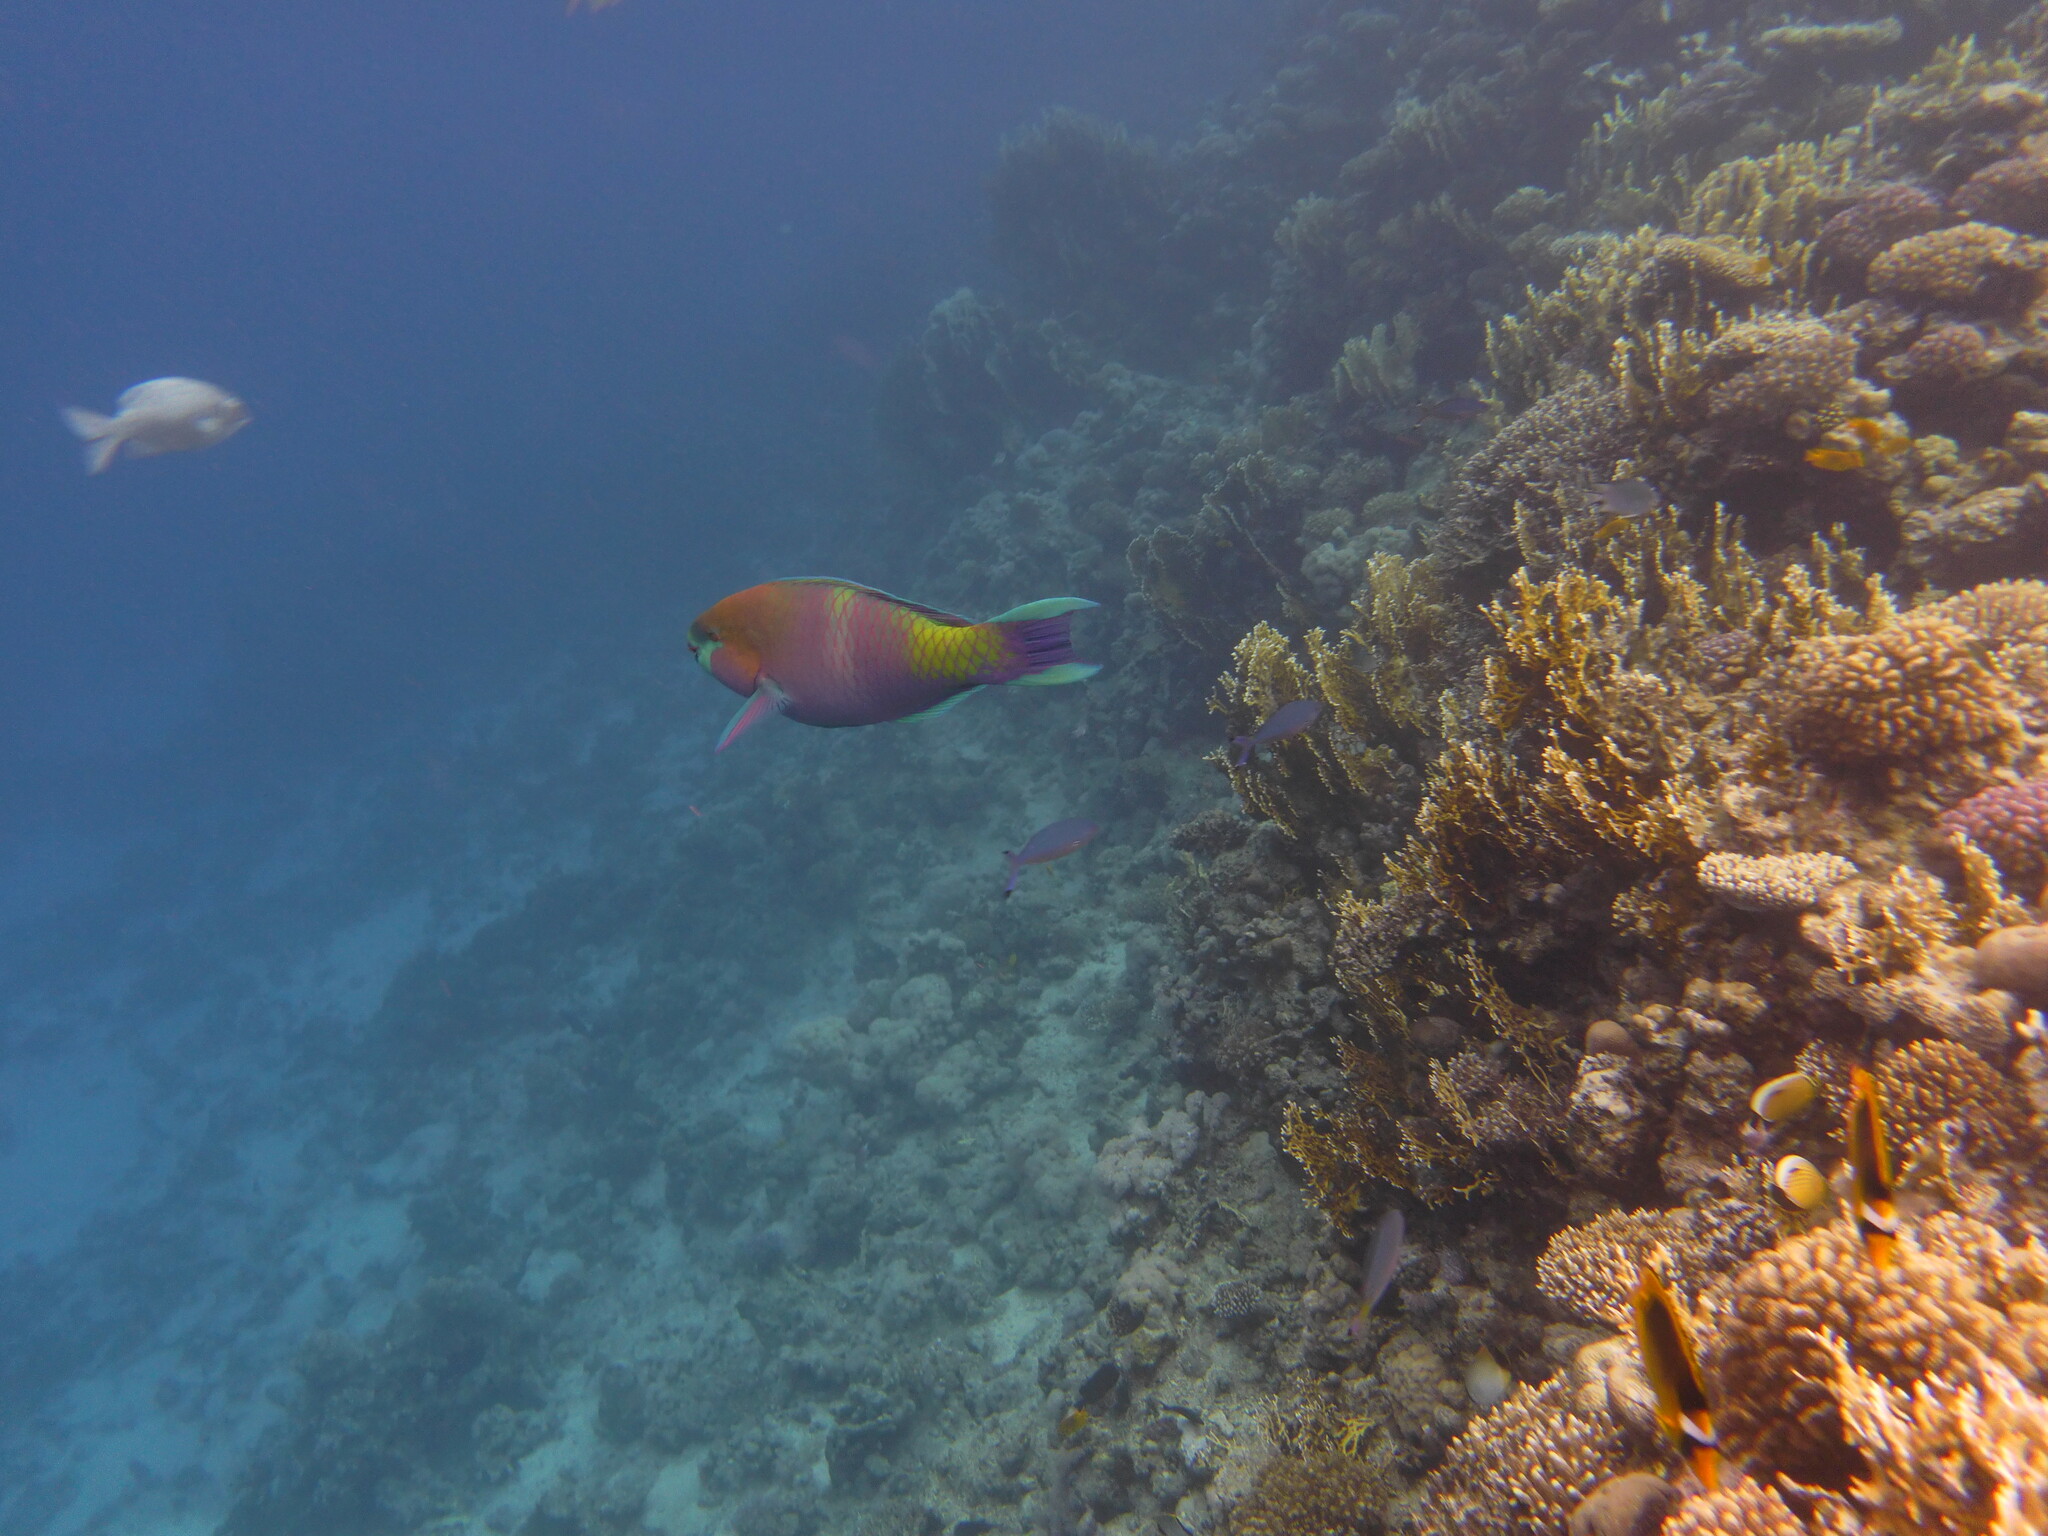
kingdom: Animalia
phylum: Chordata
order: Perciformes
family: Scaridae
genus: Scarus
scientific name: Scarus ferrugineus
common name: Rusty parrotfish
